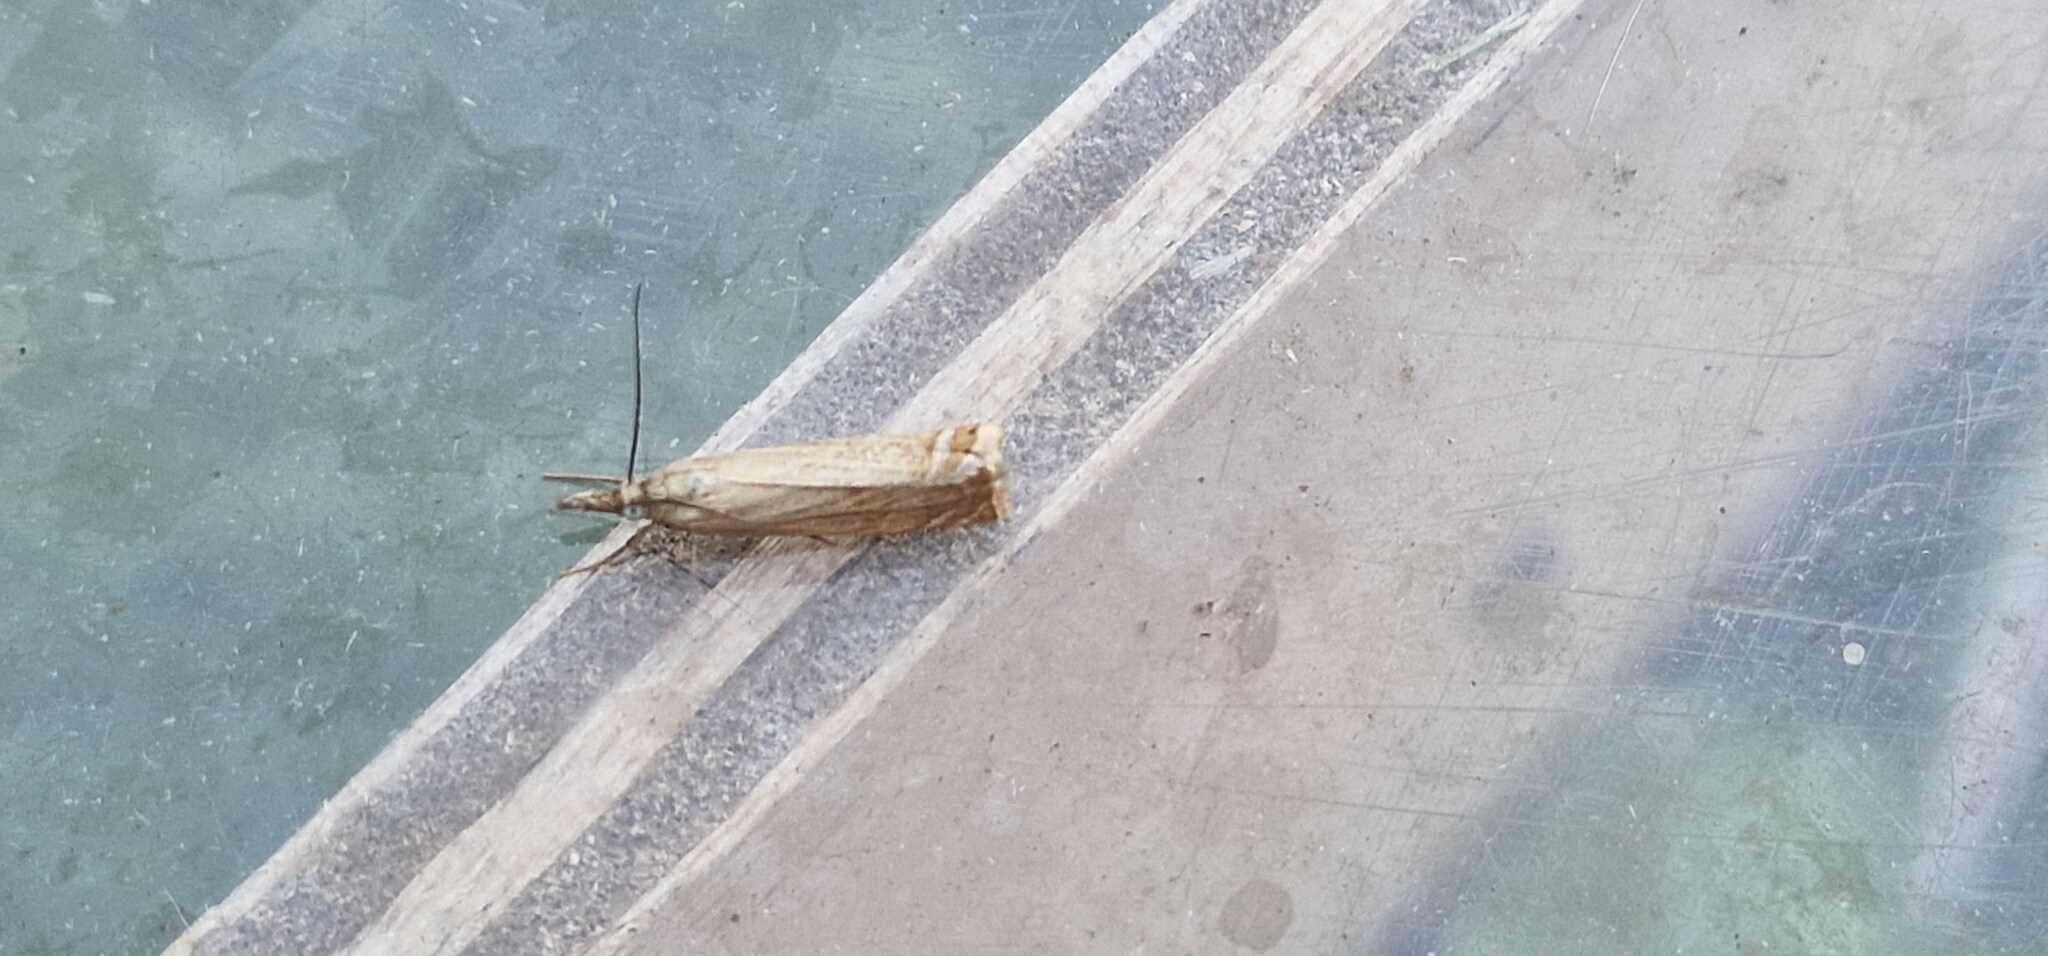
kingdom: Animalia
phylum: Arthropoda
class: Insecta
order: Lepidoptera
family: Crambidae
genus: Chrysoteuchia
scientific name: Chrysoteuchia culmella
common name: Garden grass-veneer
